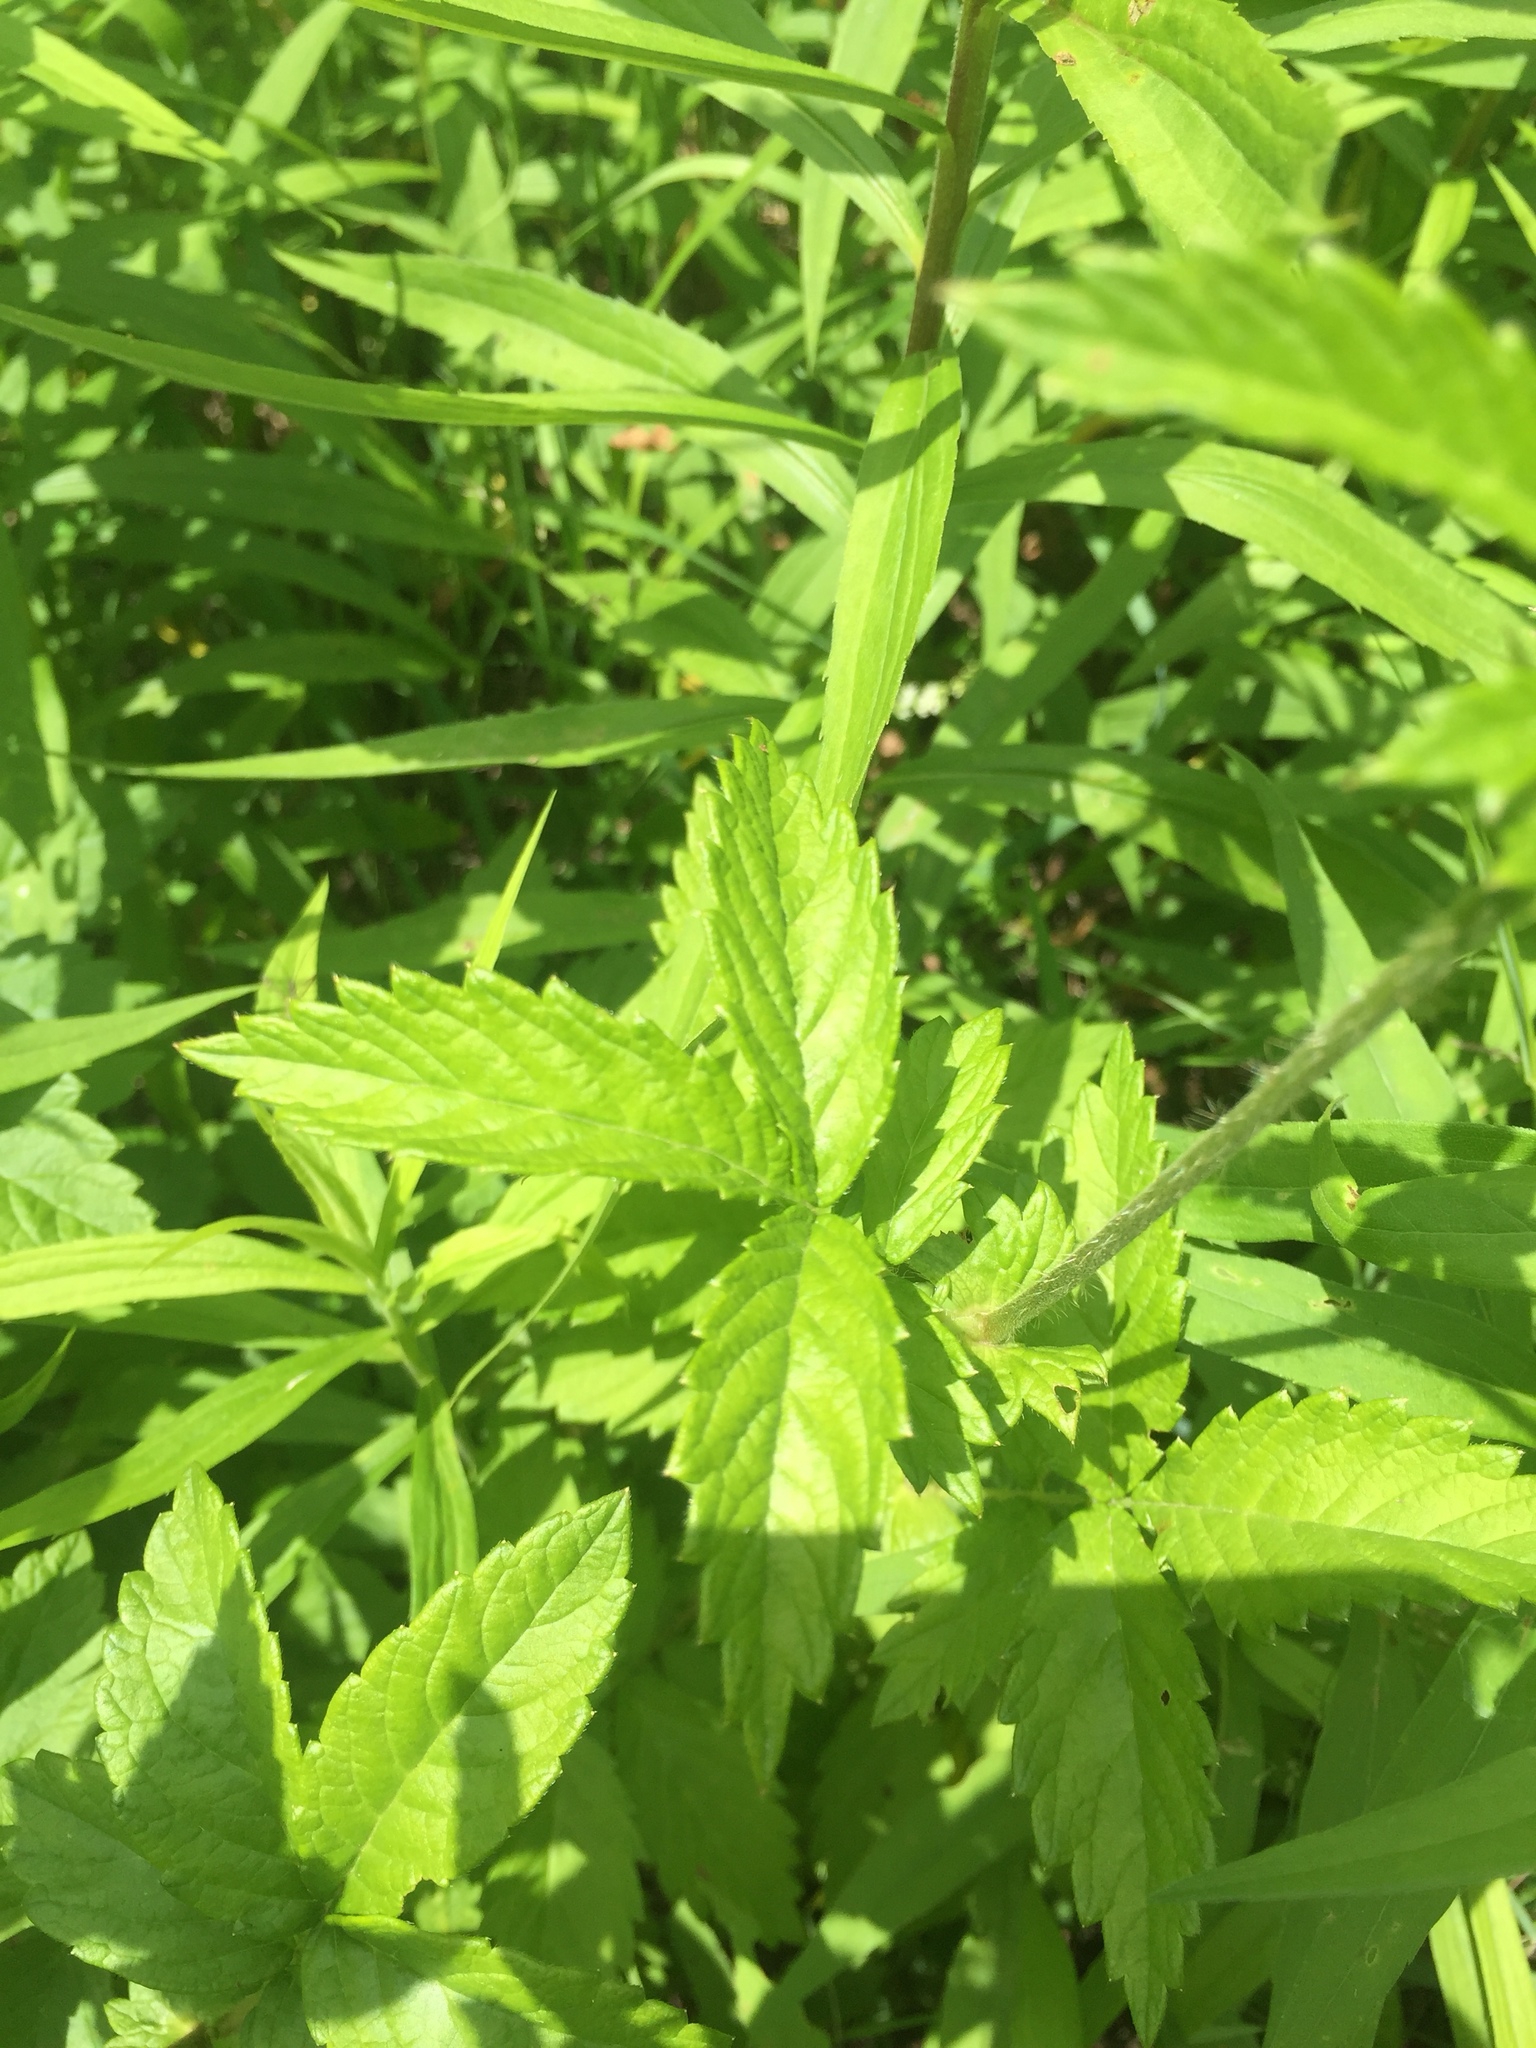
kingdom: Plantae
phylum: Tracheophyta
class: Magnoliopsida
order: Rosales
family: Rosaceae
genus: Agrimonia
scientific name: Agrimonia gryposepala
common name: Common agrimony
